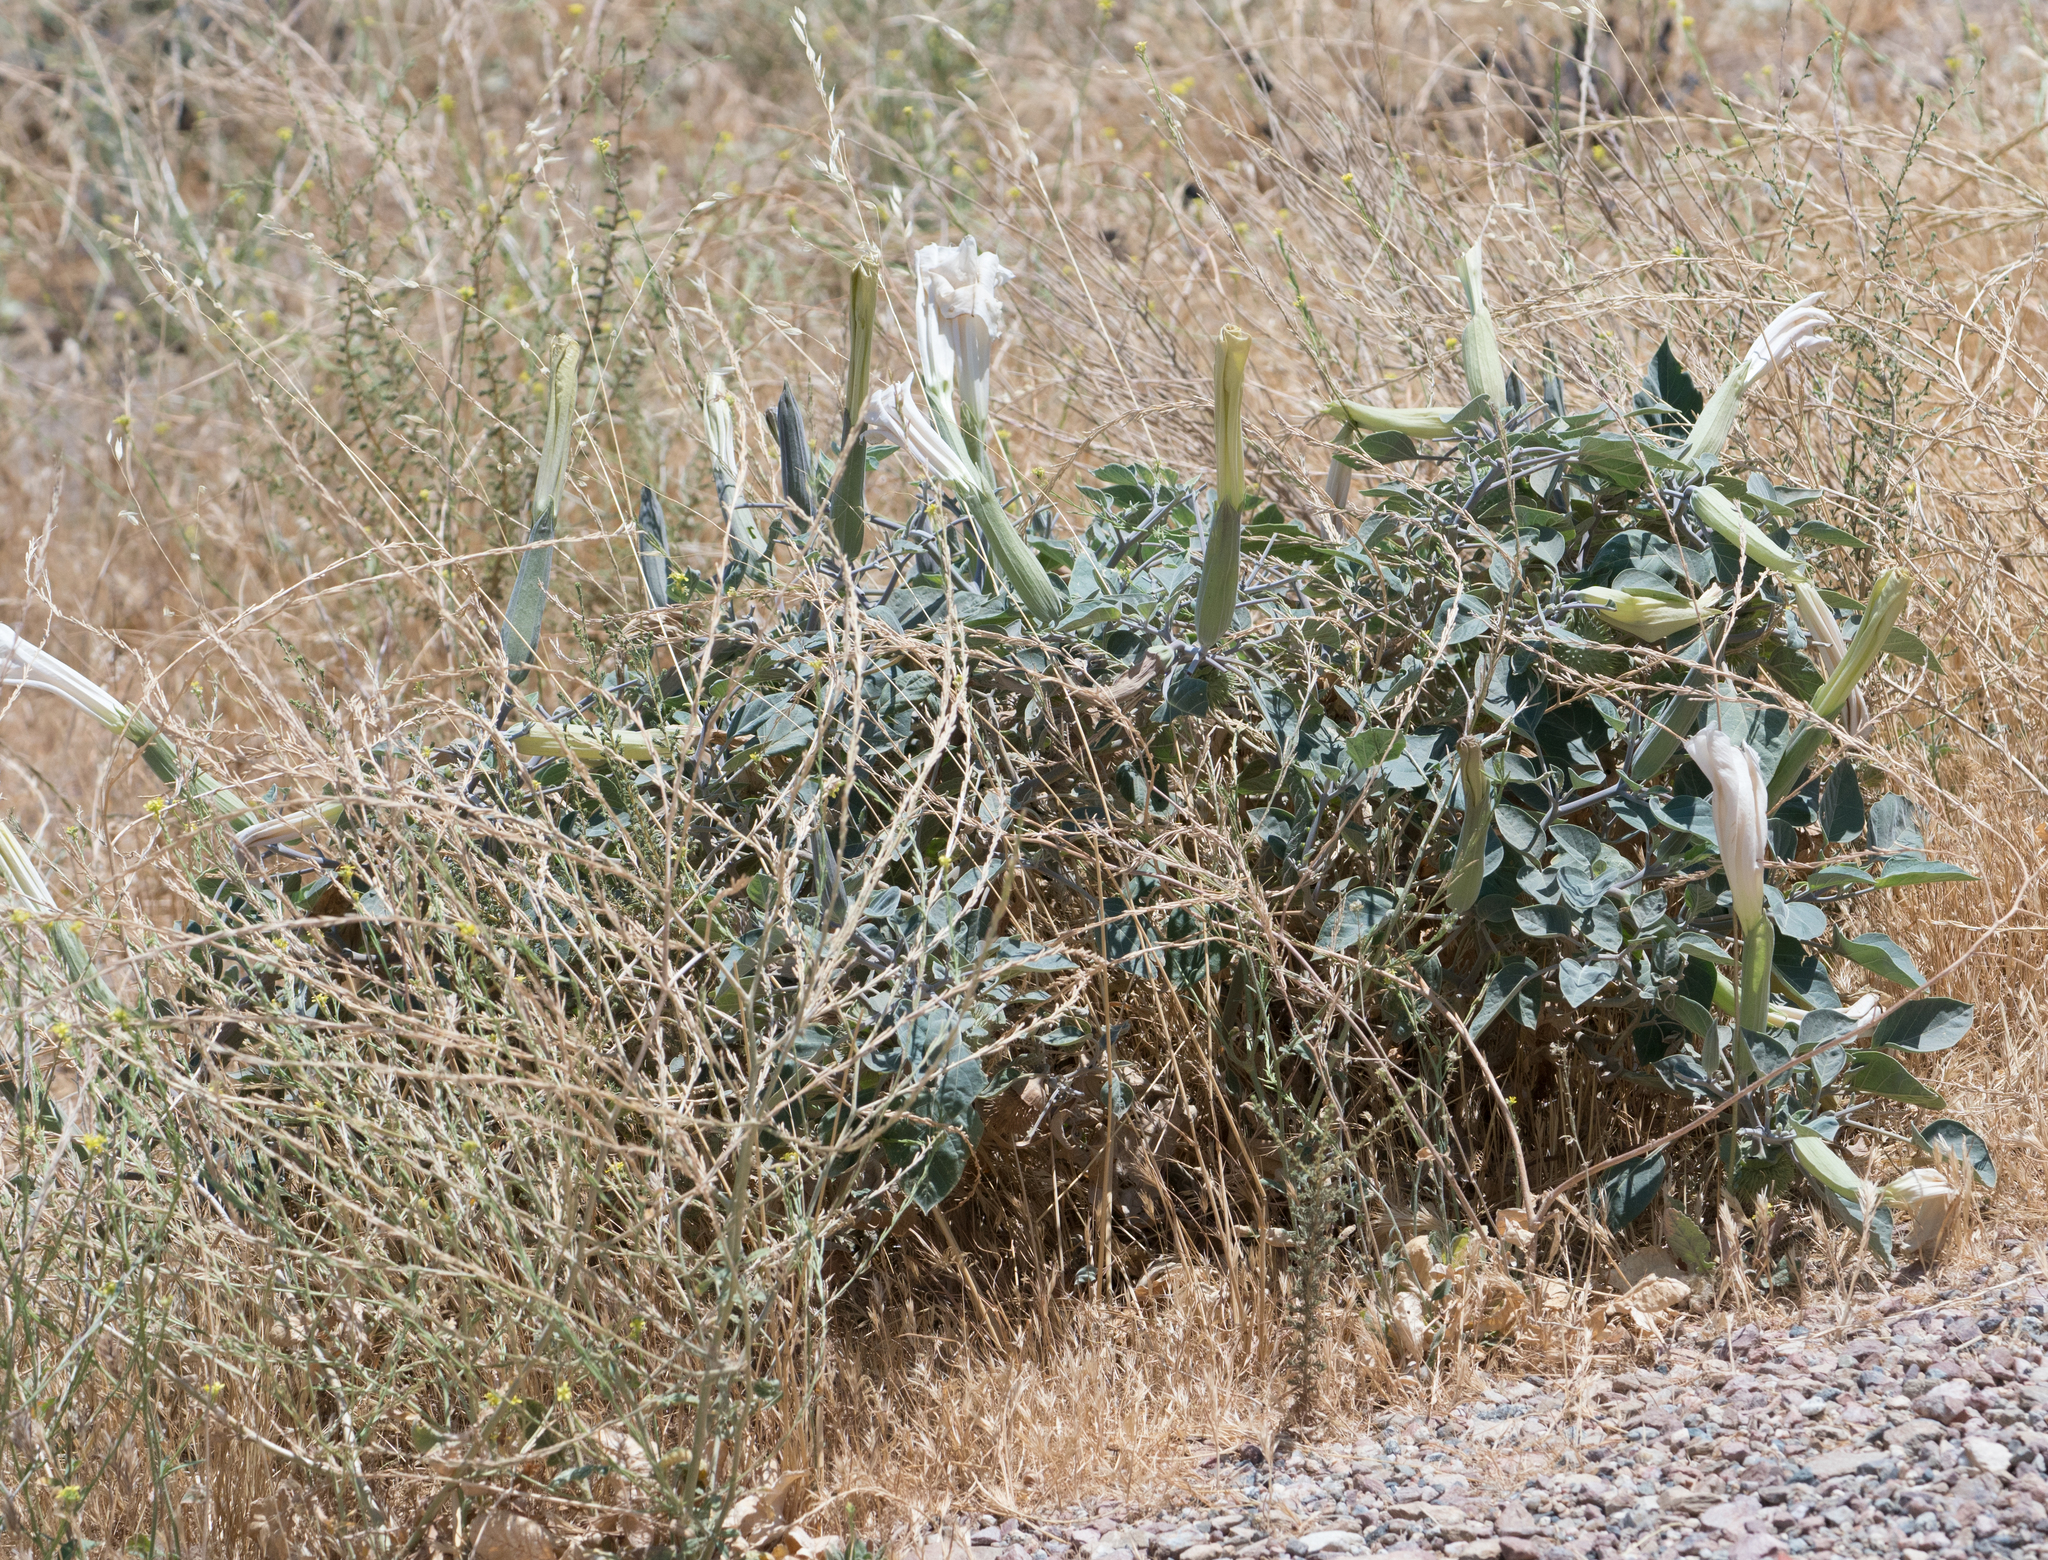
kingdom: Plantae
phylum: Tracheophyta
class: Magnoliopsida
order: Solanales
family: Solanaceae
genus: Datura
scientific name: Datura wrightii
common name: Sacred thorn-apple
